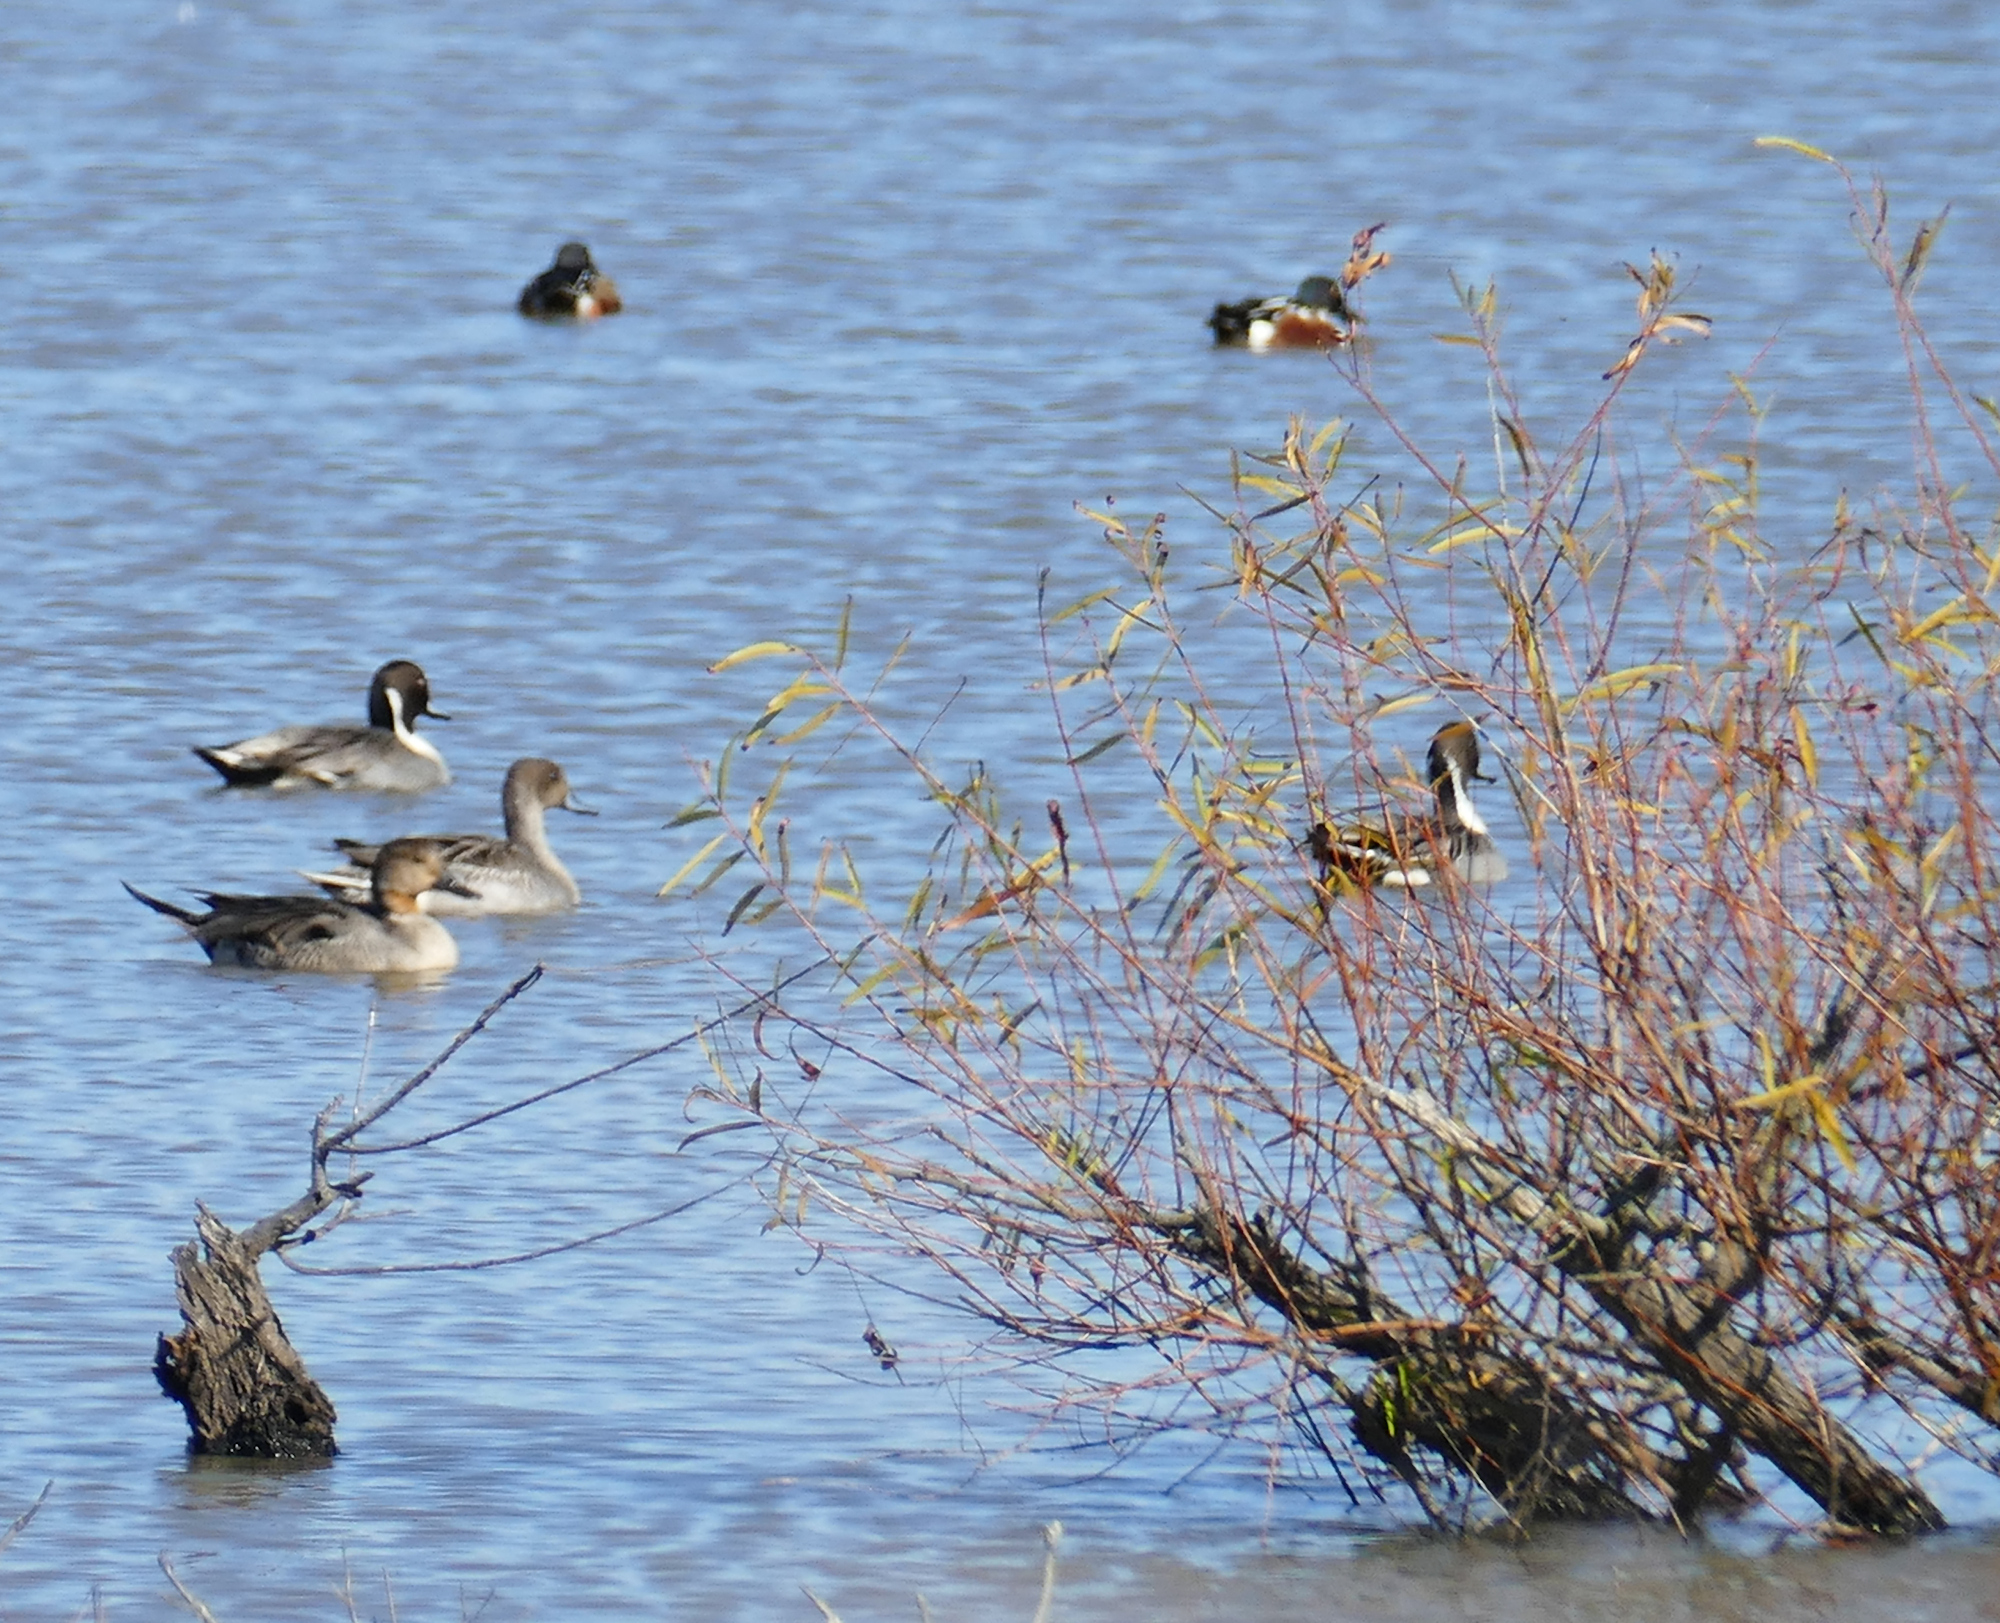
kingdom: Animalia
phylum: Chordata
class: Aves
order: Anseriformes
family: Anatidae
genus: Spatula
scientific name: Spatula clypeata
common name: Northern shoveler
